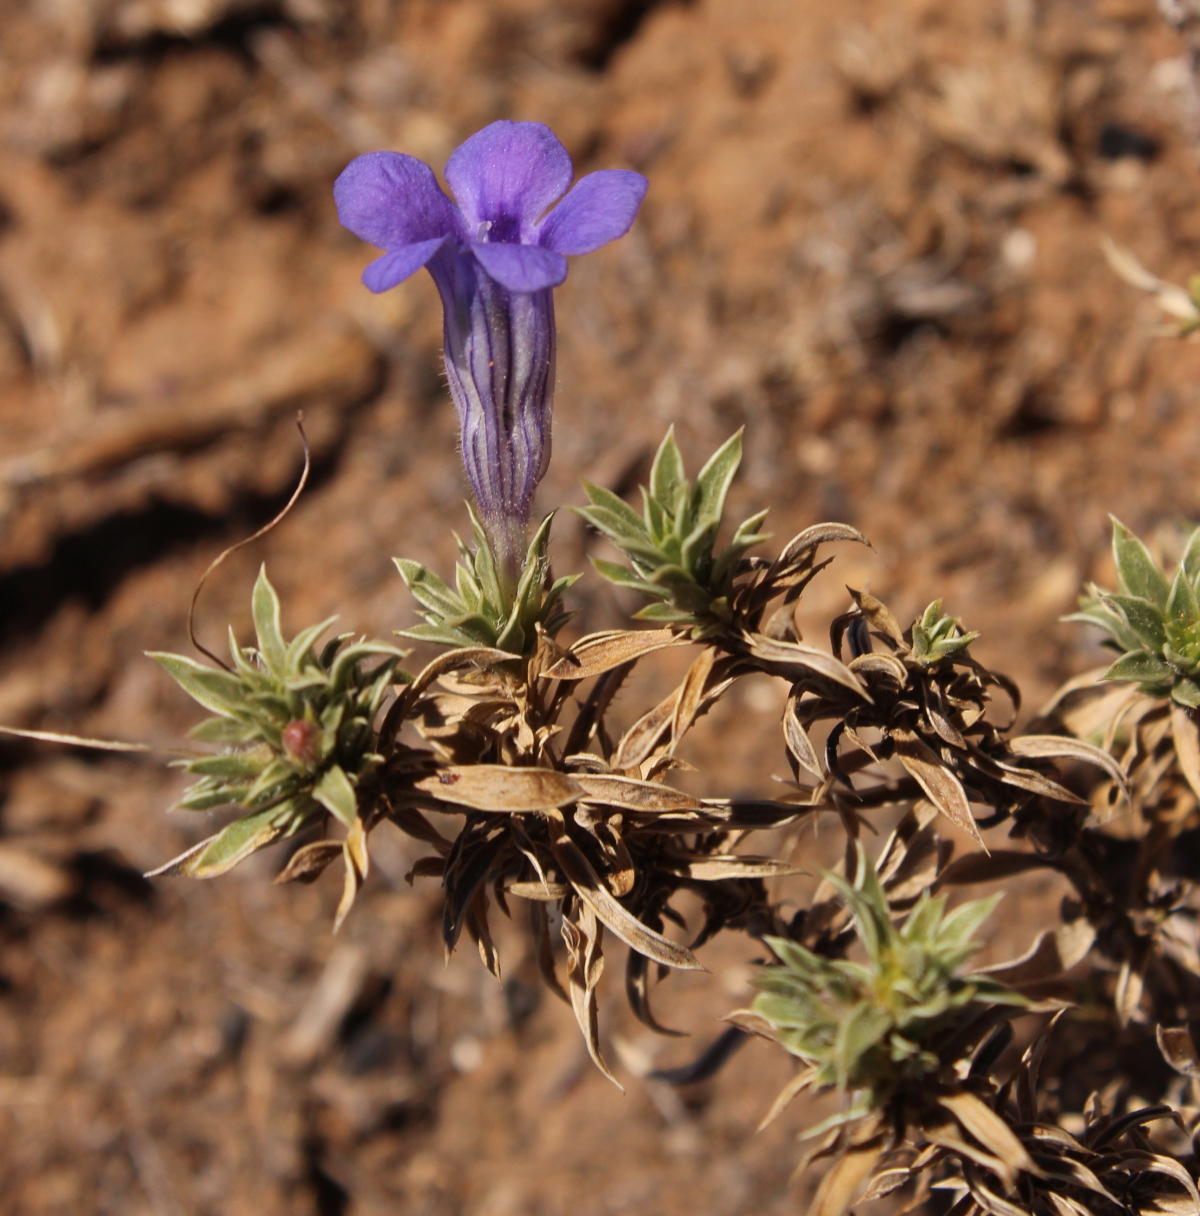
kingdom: Plantae
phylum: Tracheophyta
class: Magnoliopsida
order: Lamiales
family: Scrophulariaceae
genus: Aptosimum
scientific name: Aptosimum albomarginatum
